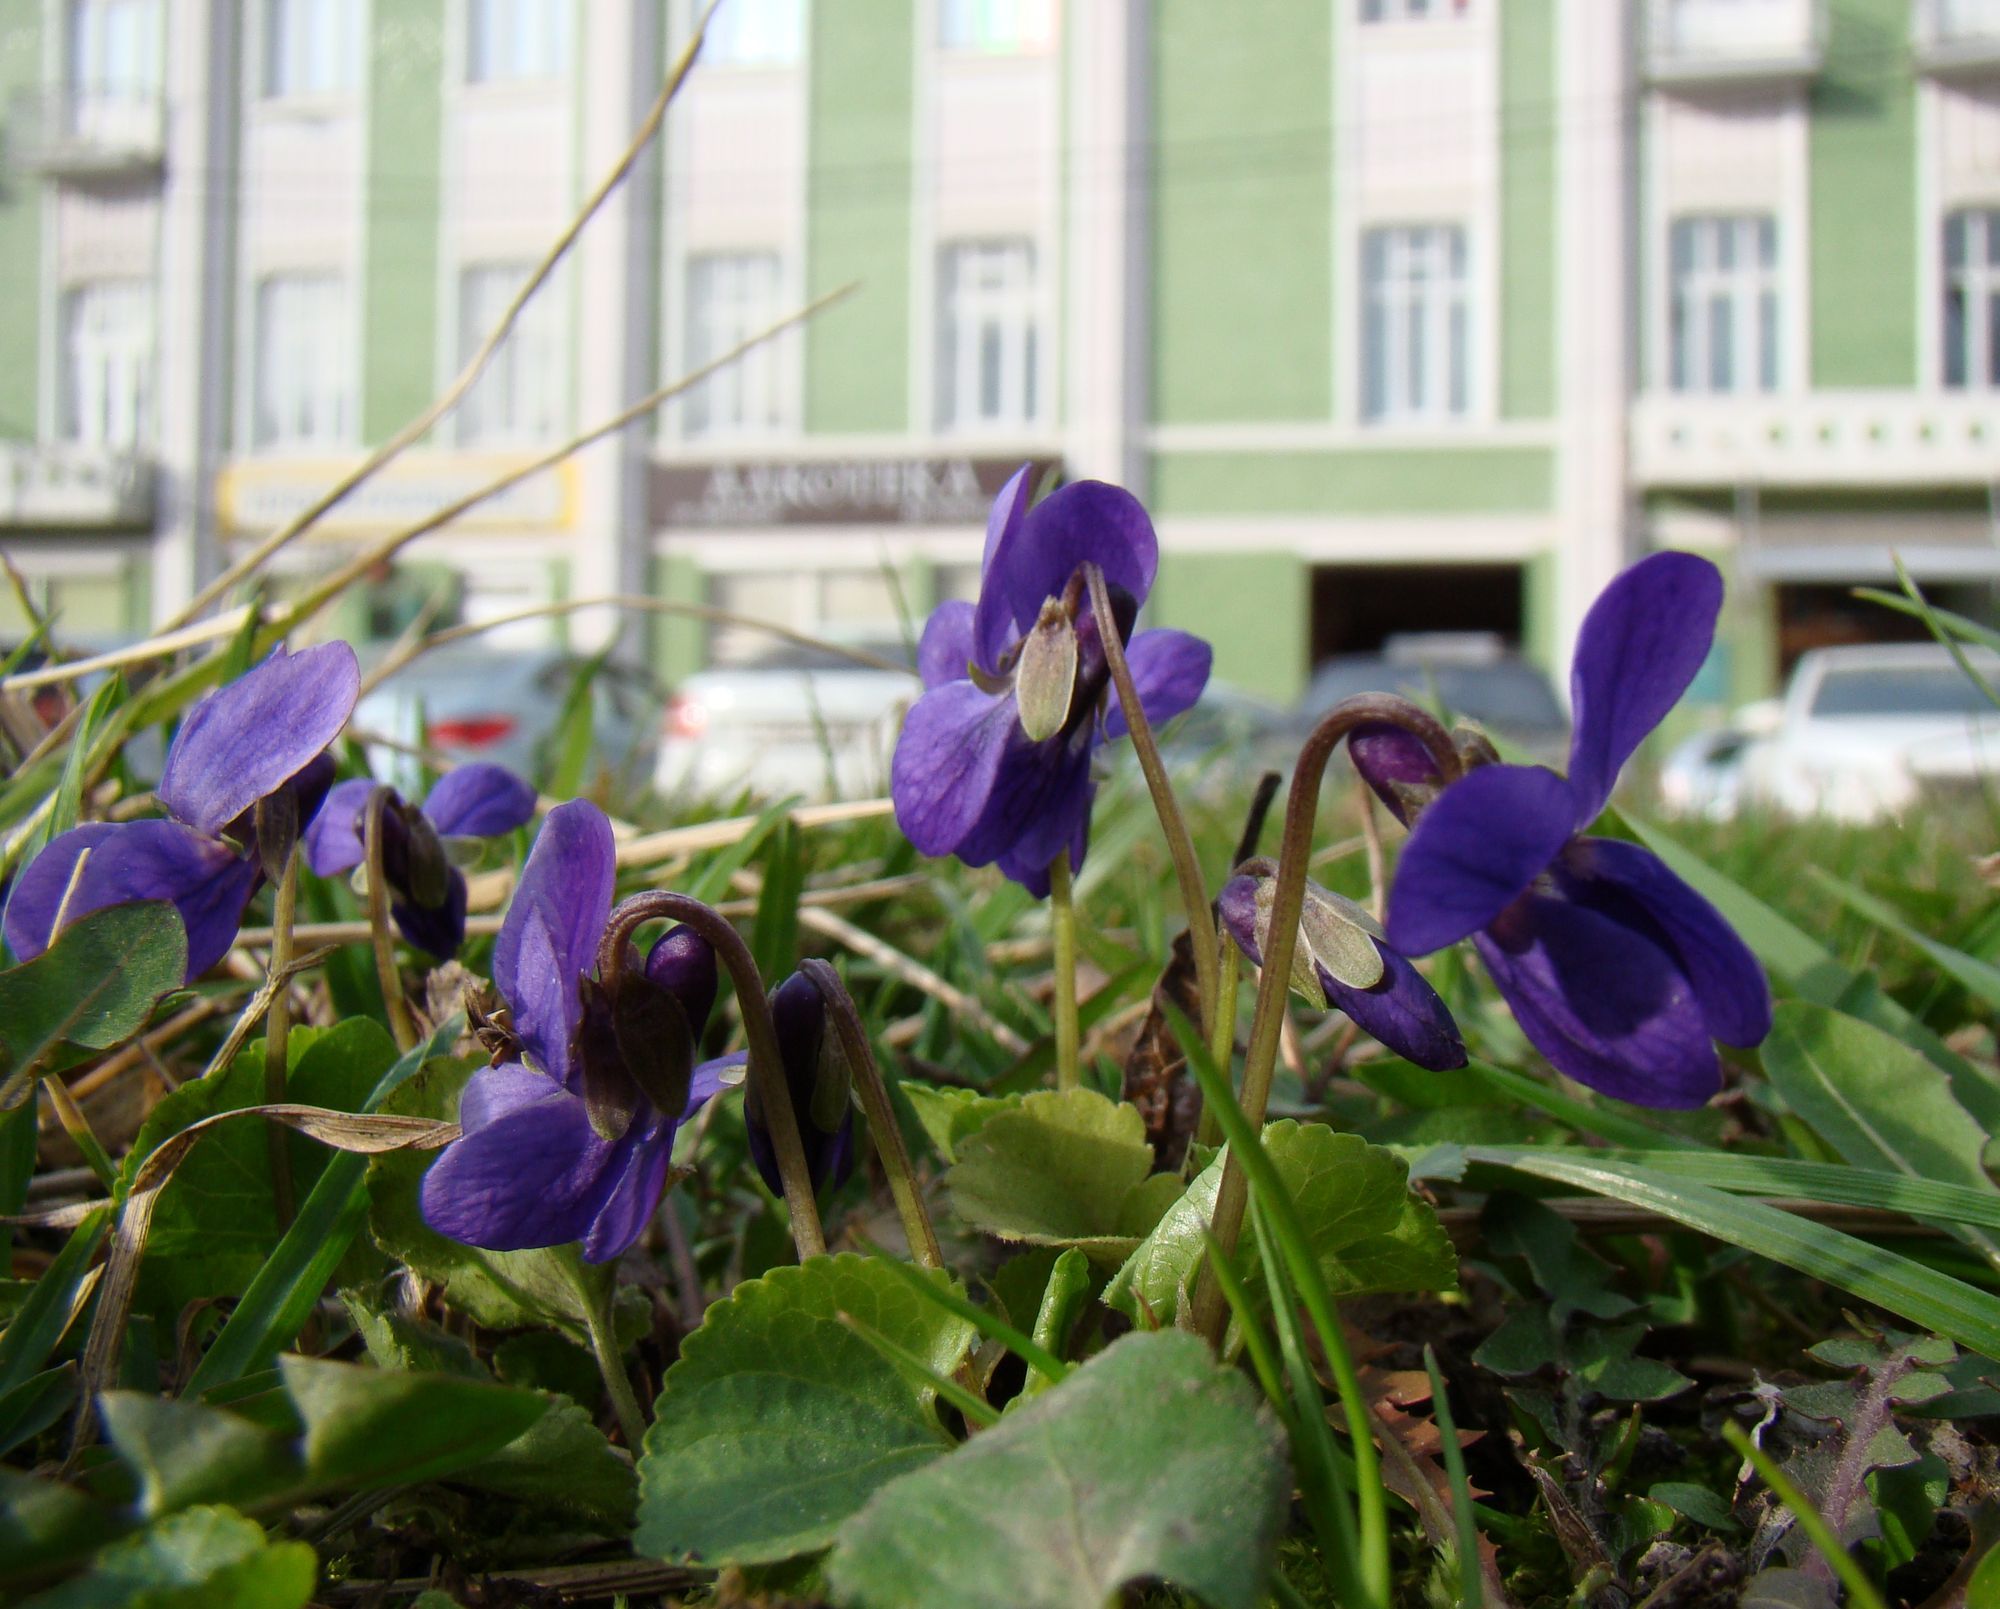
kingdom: Plantae
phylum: Tracheophyta
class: Magnoliopsida
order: Malpighiales
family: Violaceae
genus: Viola
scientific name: Viola odorata
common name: Sweet violet
